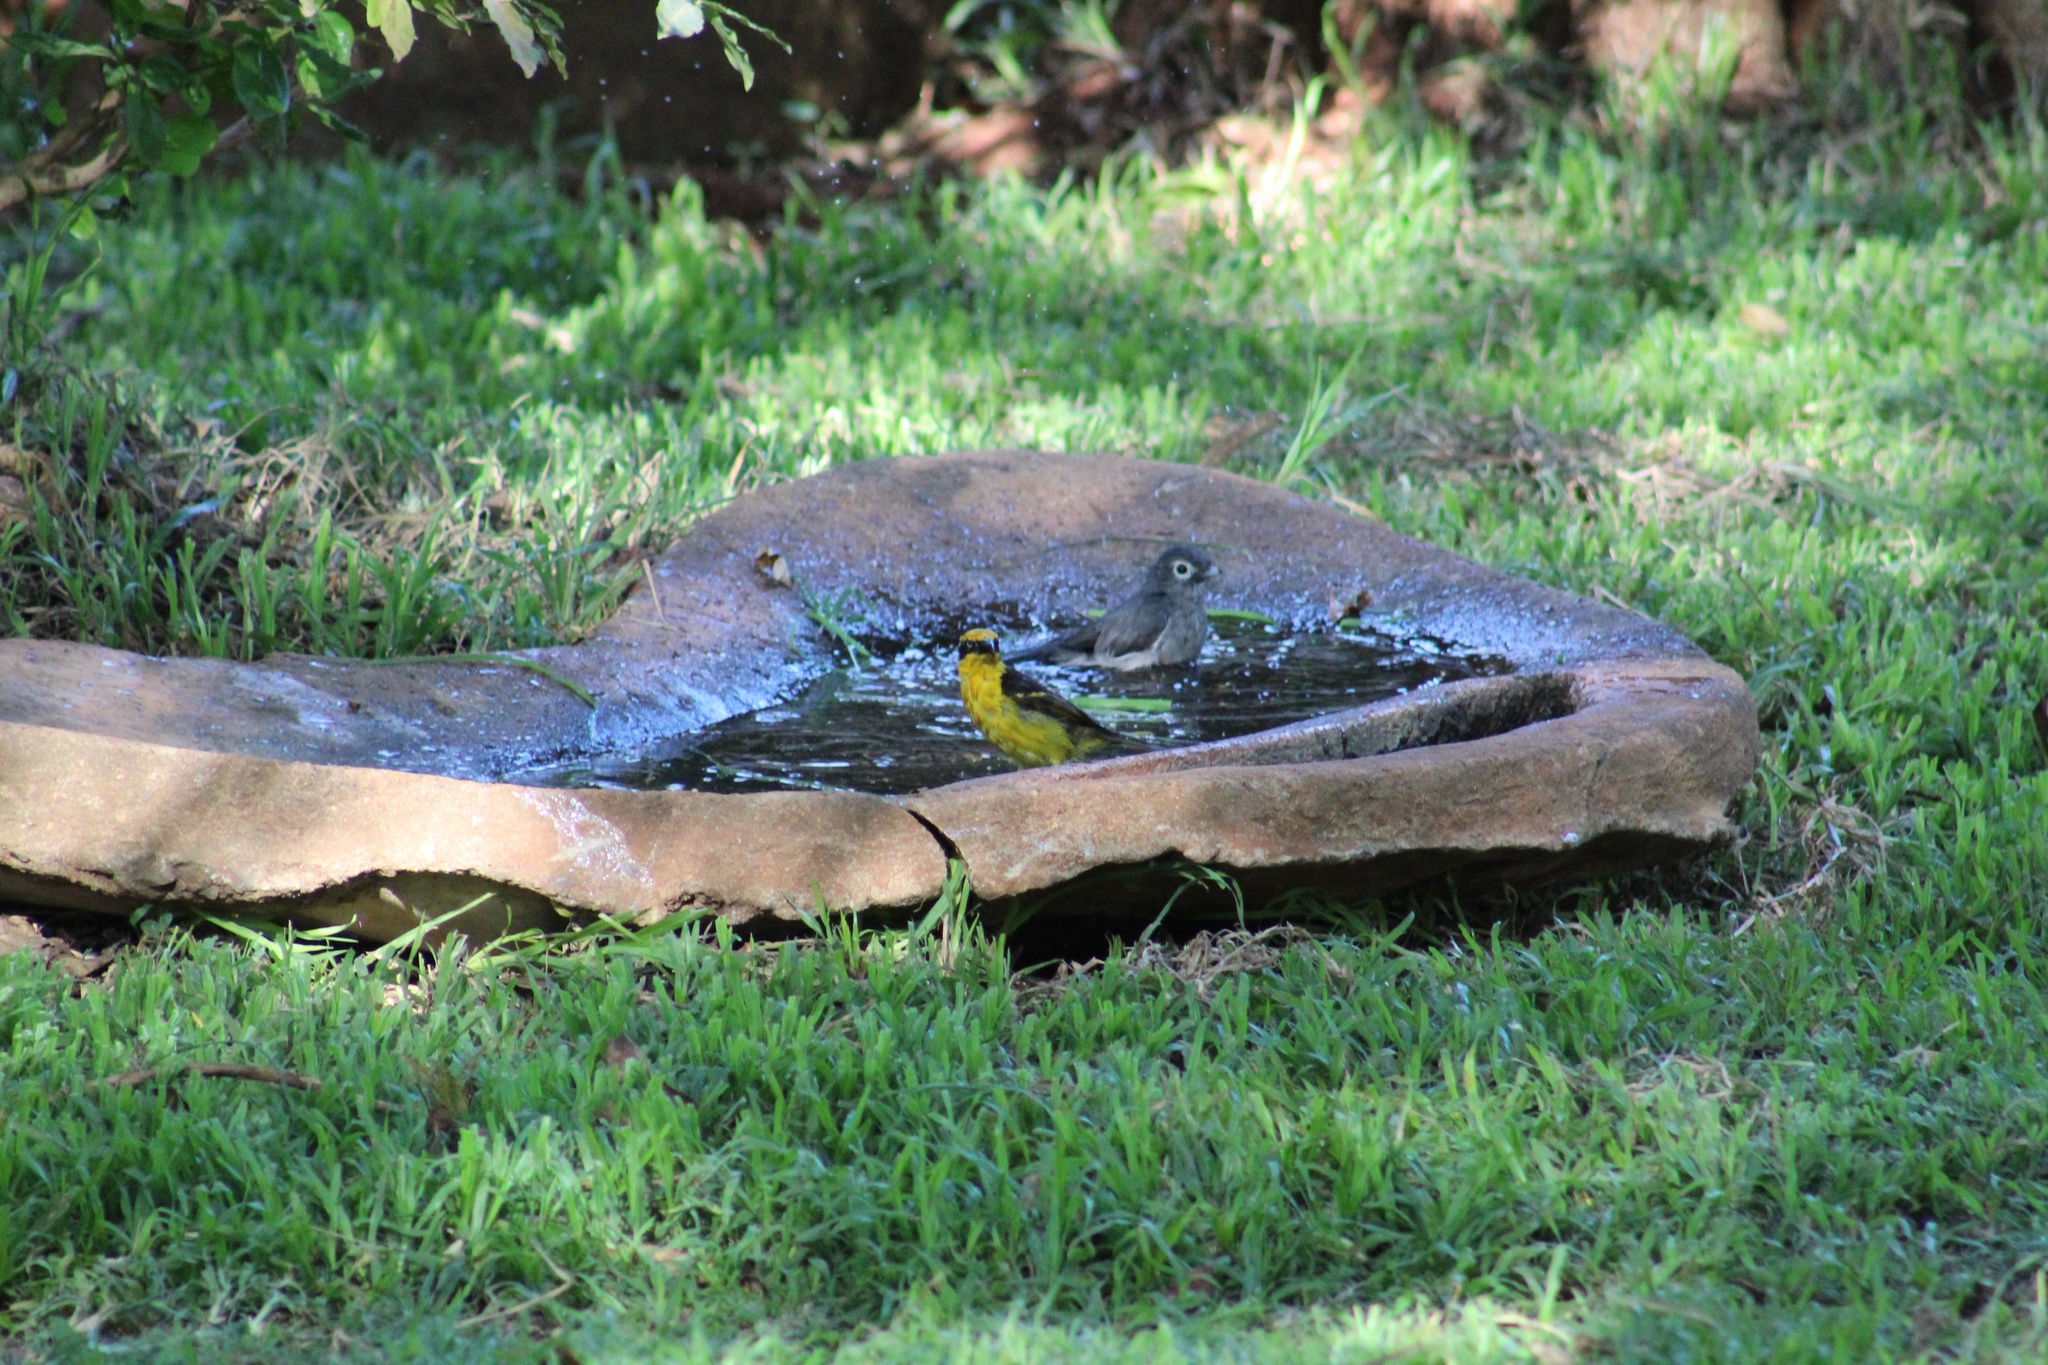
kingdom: Animalia
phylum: Chordata
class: Aves
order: Passeriformes
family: Ploceidae
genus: Ploceus
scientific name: Ploceus baglafecht
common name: Baglafecht weaver
